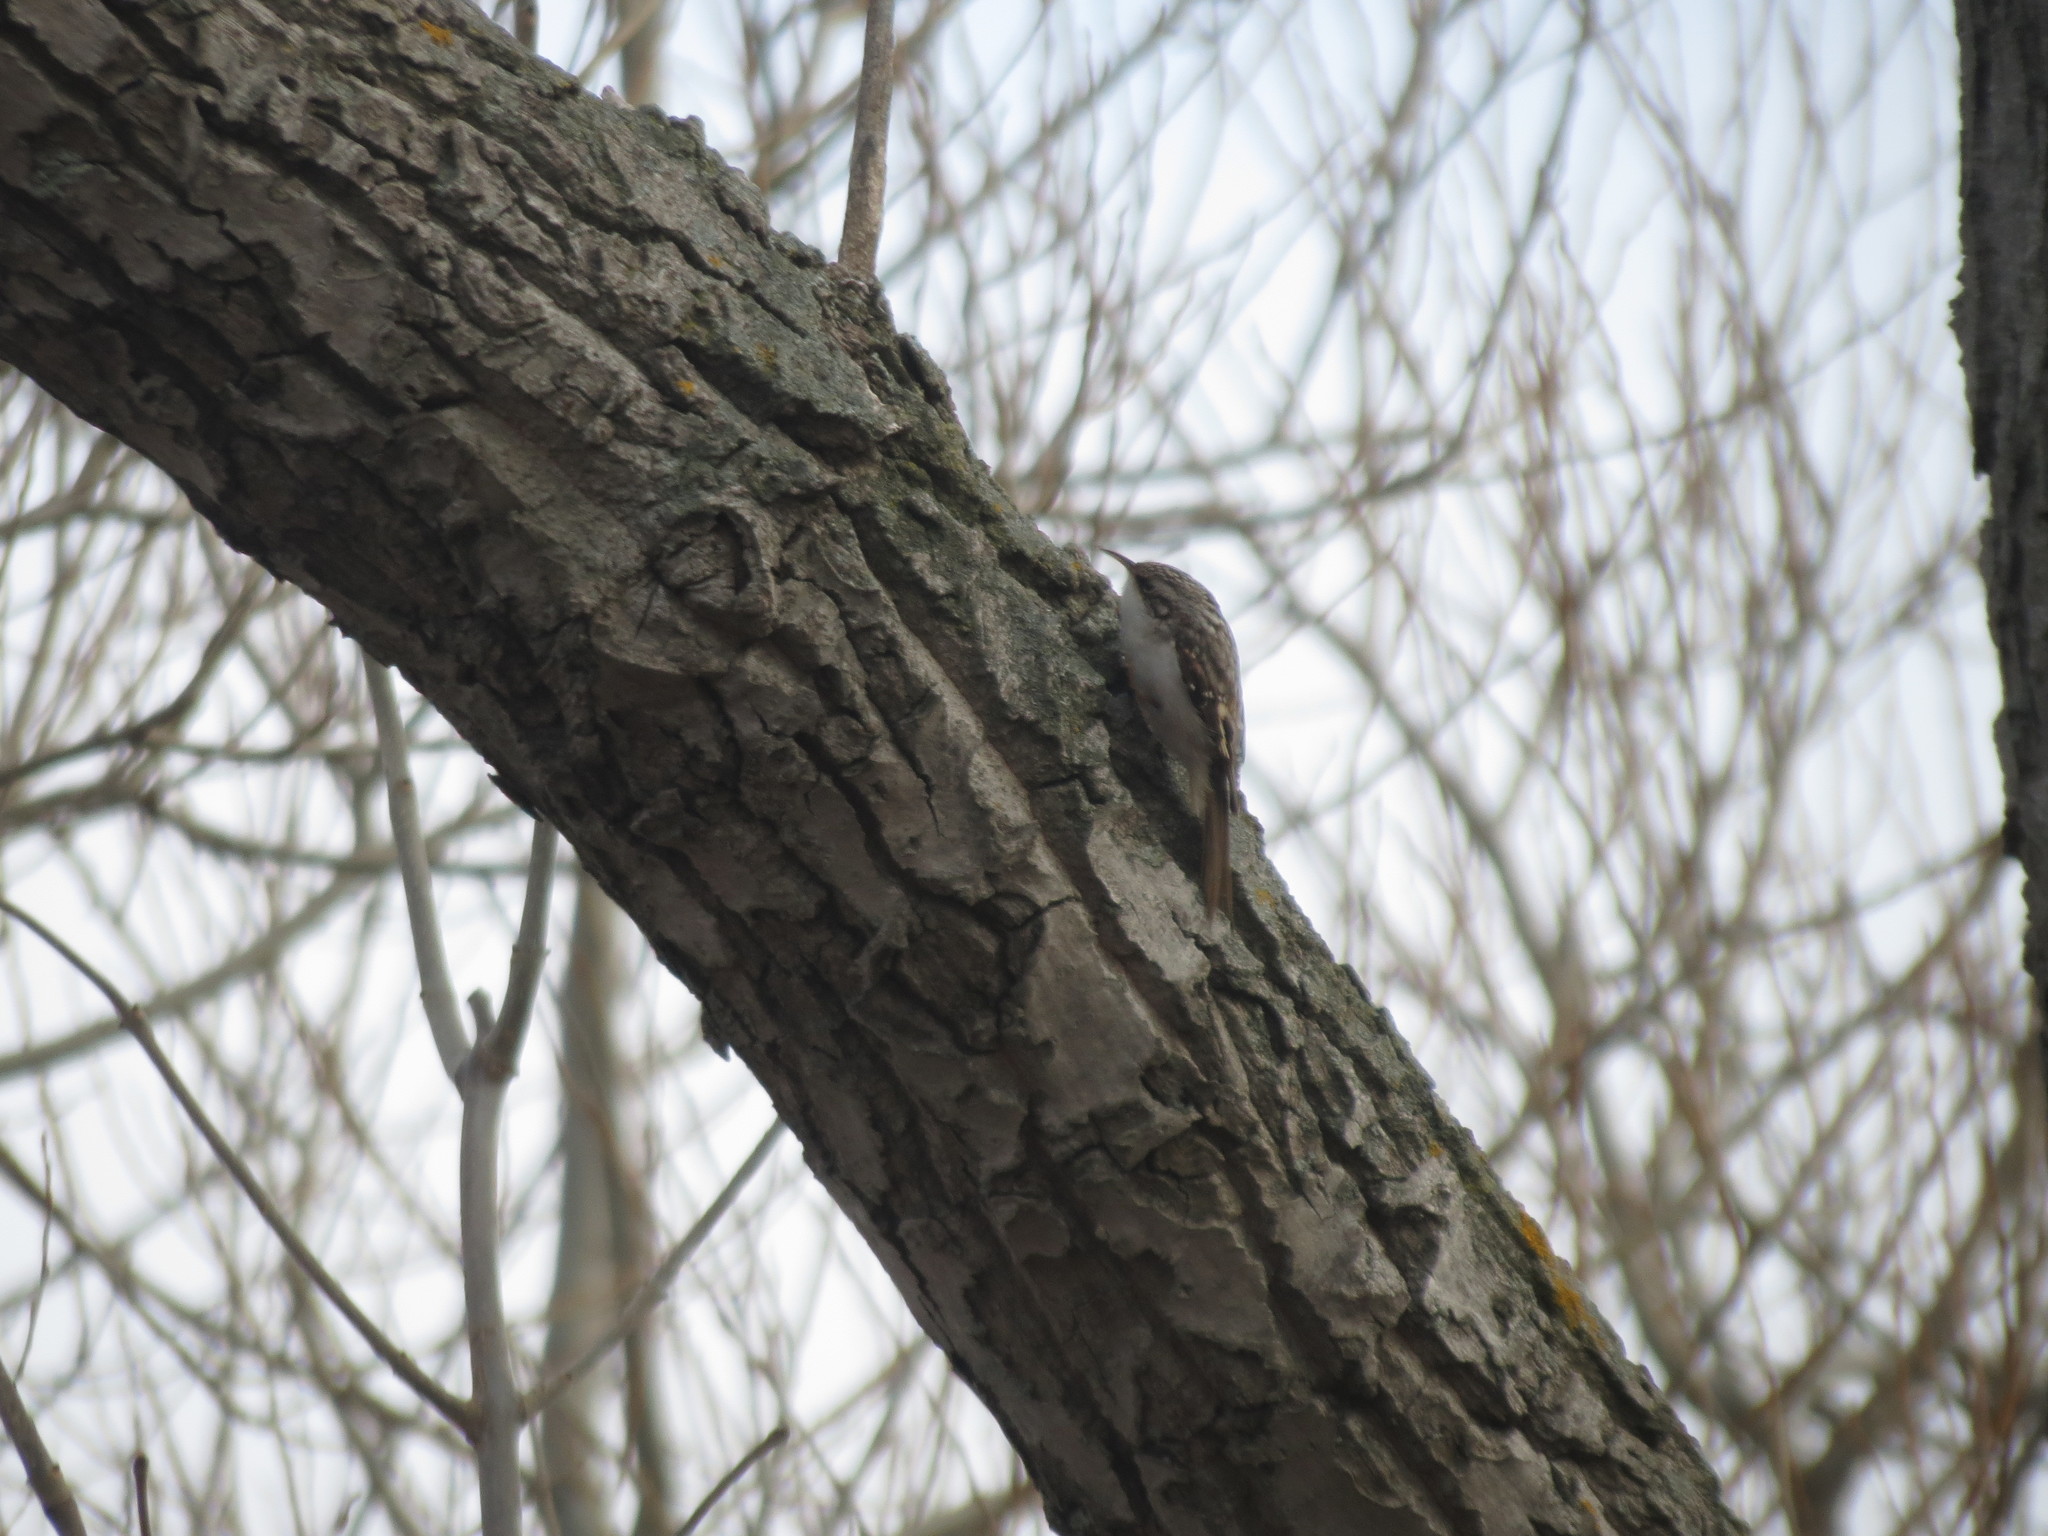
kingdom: Animalia
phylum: Chordata
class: Aves
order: Passeriformes
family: Certhiidae
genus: Certhia
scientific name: Certhia americana
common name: Brown creeper
